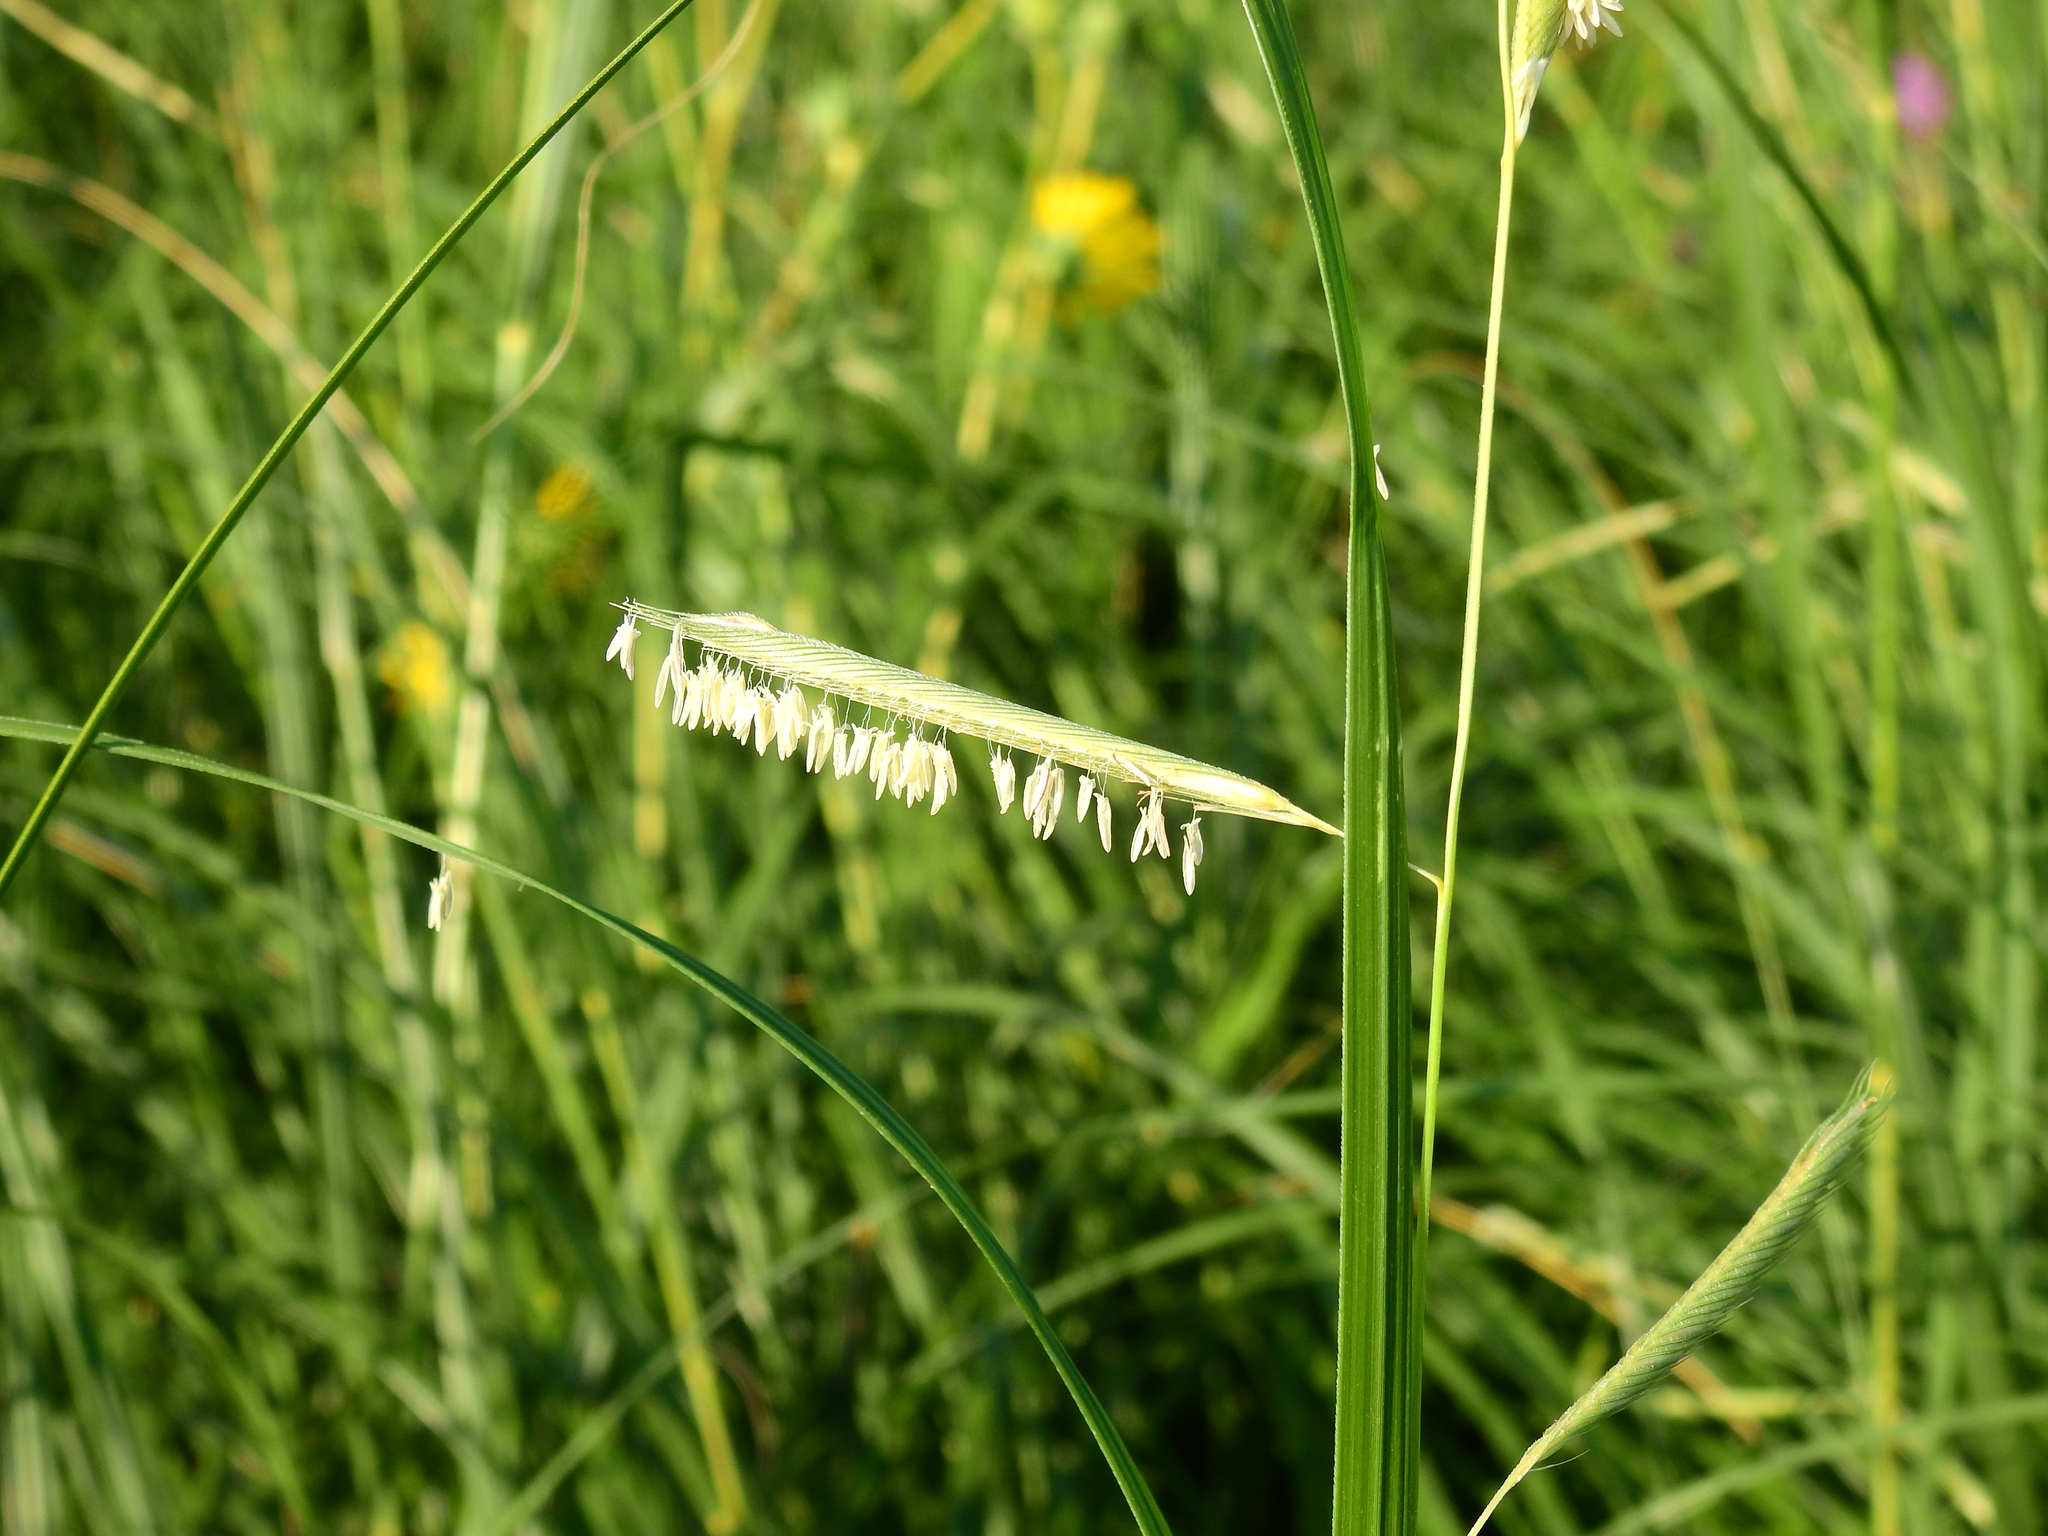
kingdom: Plantae
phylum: Tracheophyta
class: Liliopsida
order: Poales
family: Poaceae
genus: Sporobolus
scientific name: Sporobolus michauxianus
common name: Freshwater cordgrass
